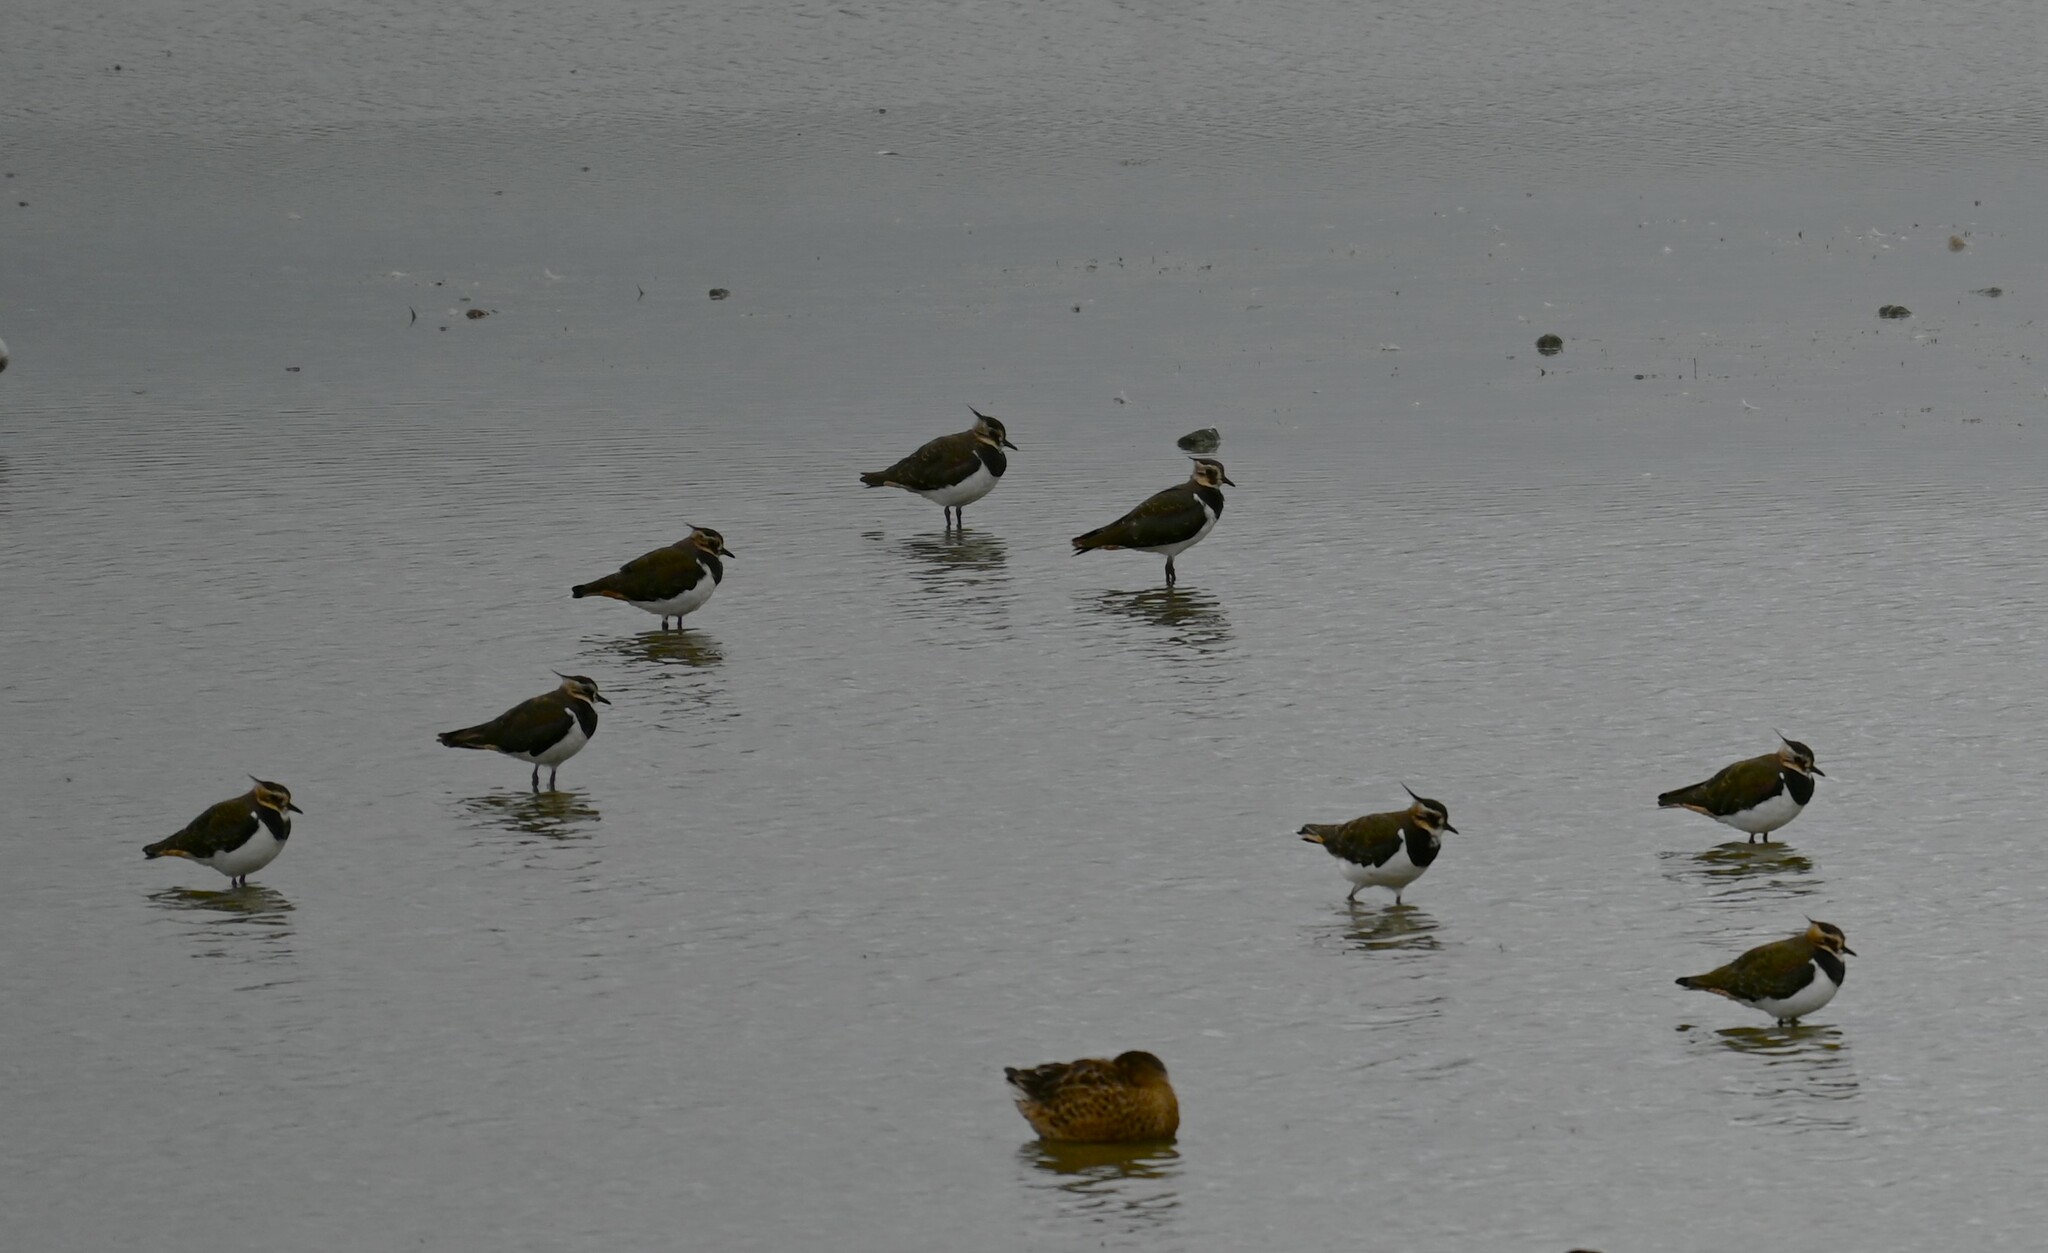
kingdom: Animalia
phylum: Chordata
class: Aves
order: Charadriiformes
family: Charadriidae
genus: Vanellus
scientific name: Vanellus vanellus
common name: Northern lapwing
